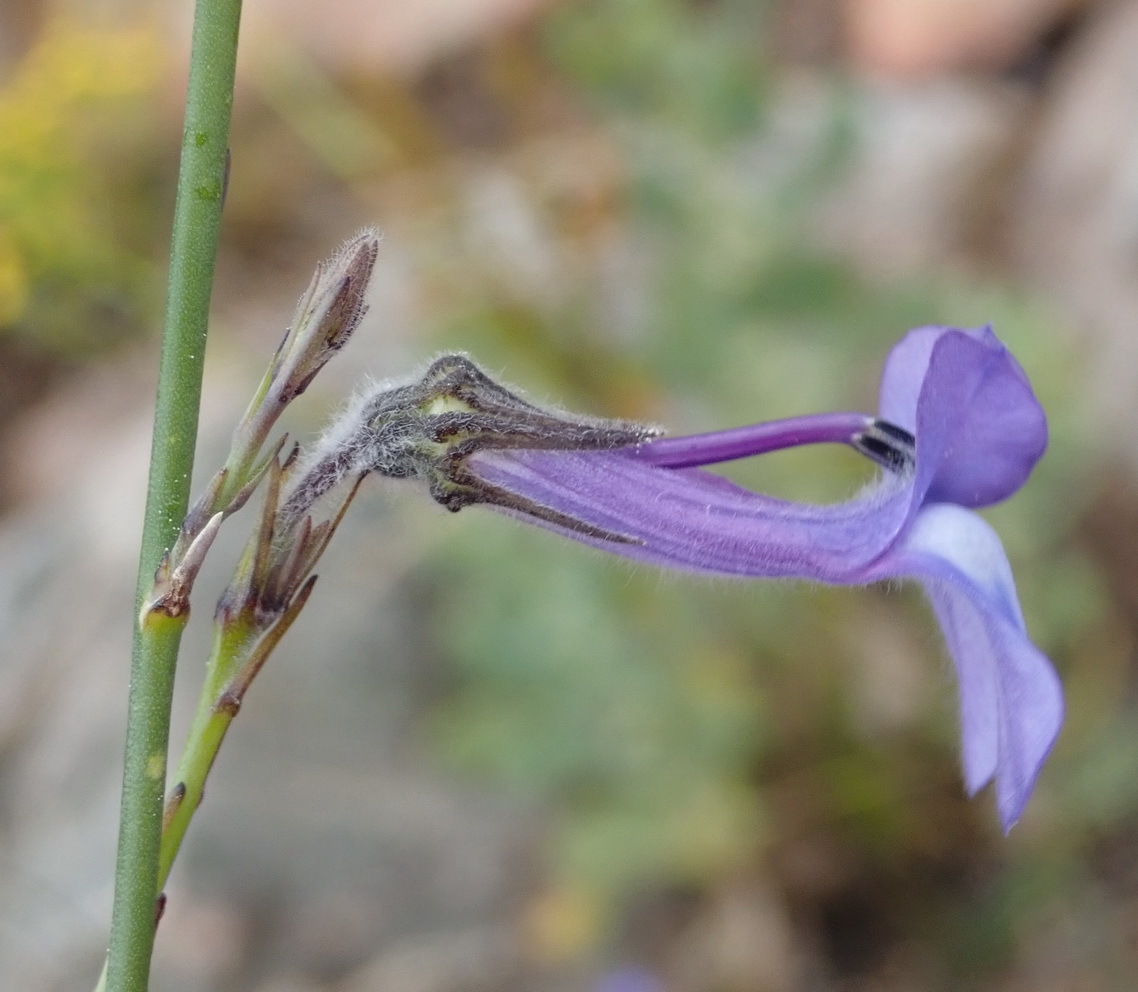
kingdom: Plantae
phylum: Tracheophyta
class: Magnoliopsida
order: Asterales
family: Campanulaceae
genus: Lobelia
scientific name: Lobelia linearis
